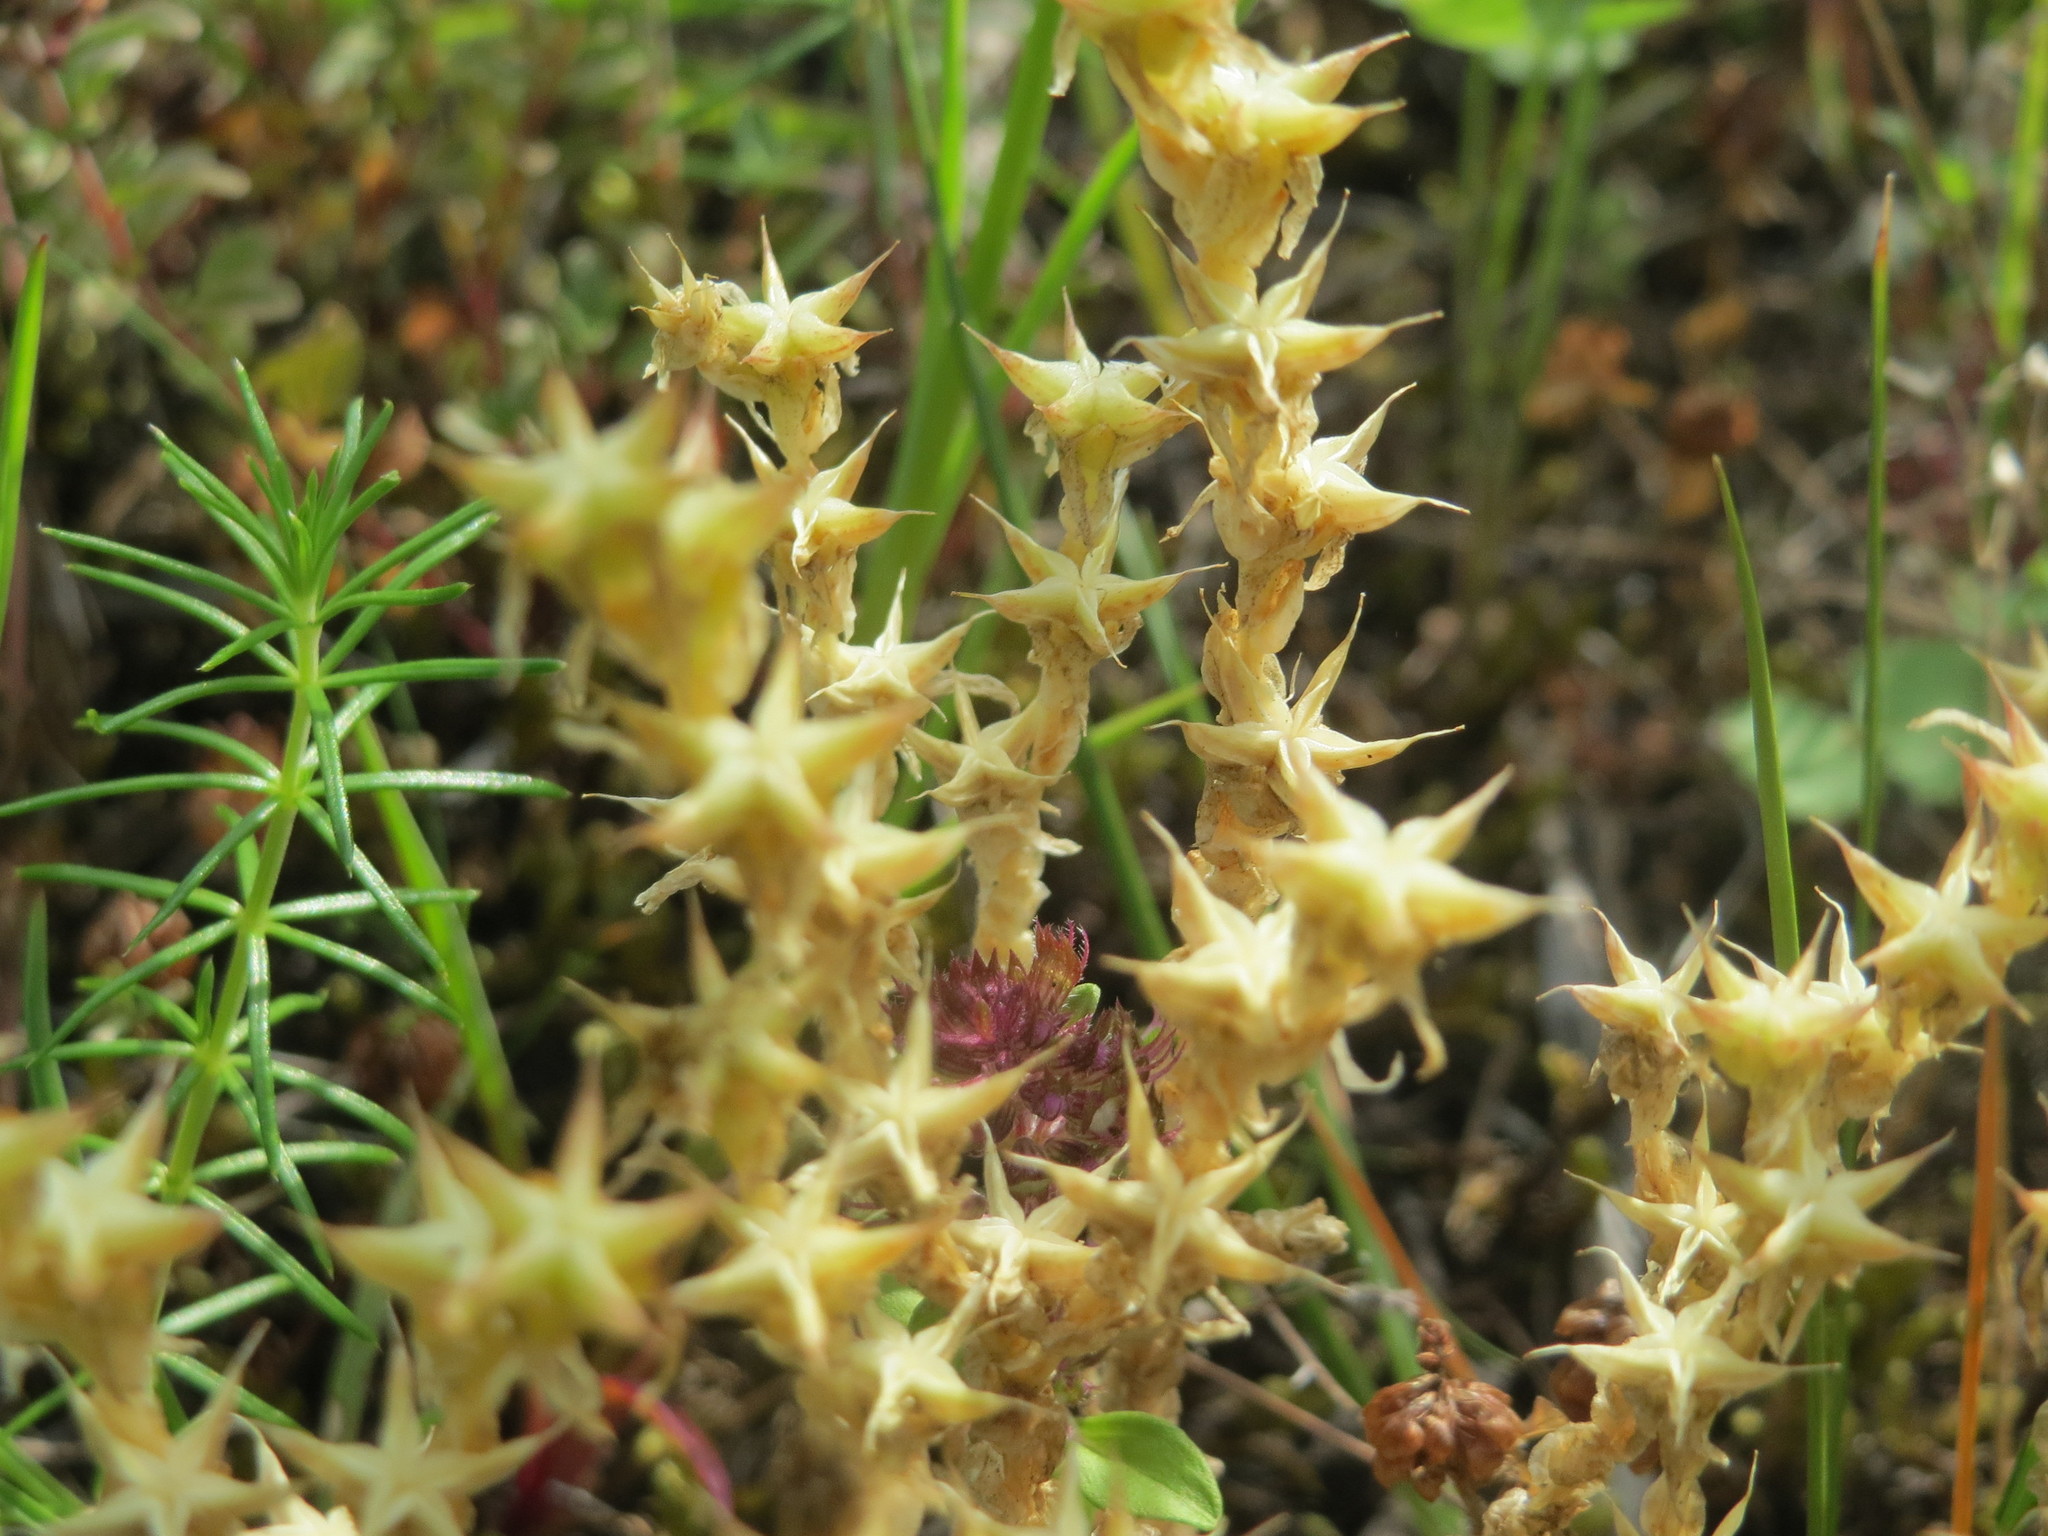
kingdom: Plantae
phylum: Tracheophyta
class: Magnoliopsida
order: Saxifragales
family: Crassulaceae
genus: Sedum
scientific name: Sedum acre
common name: Biting stonecrop
